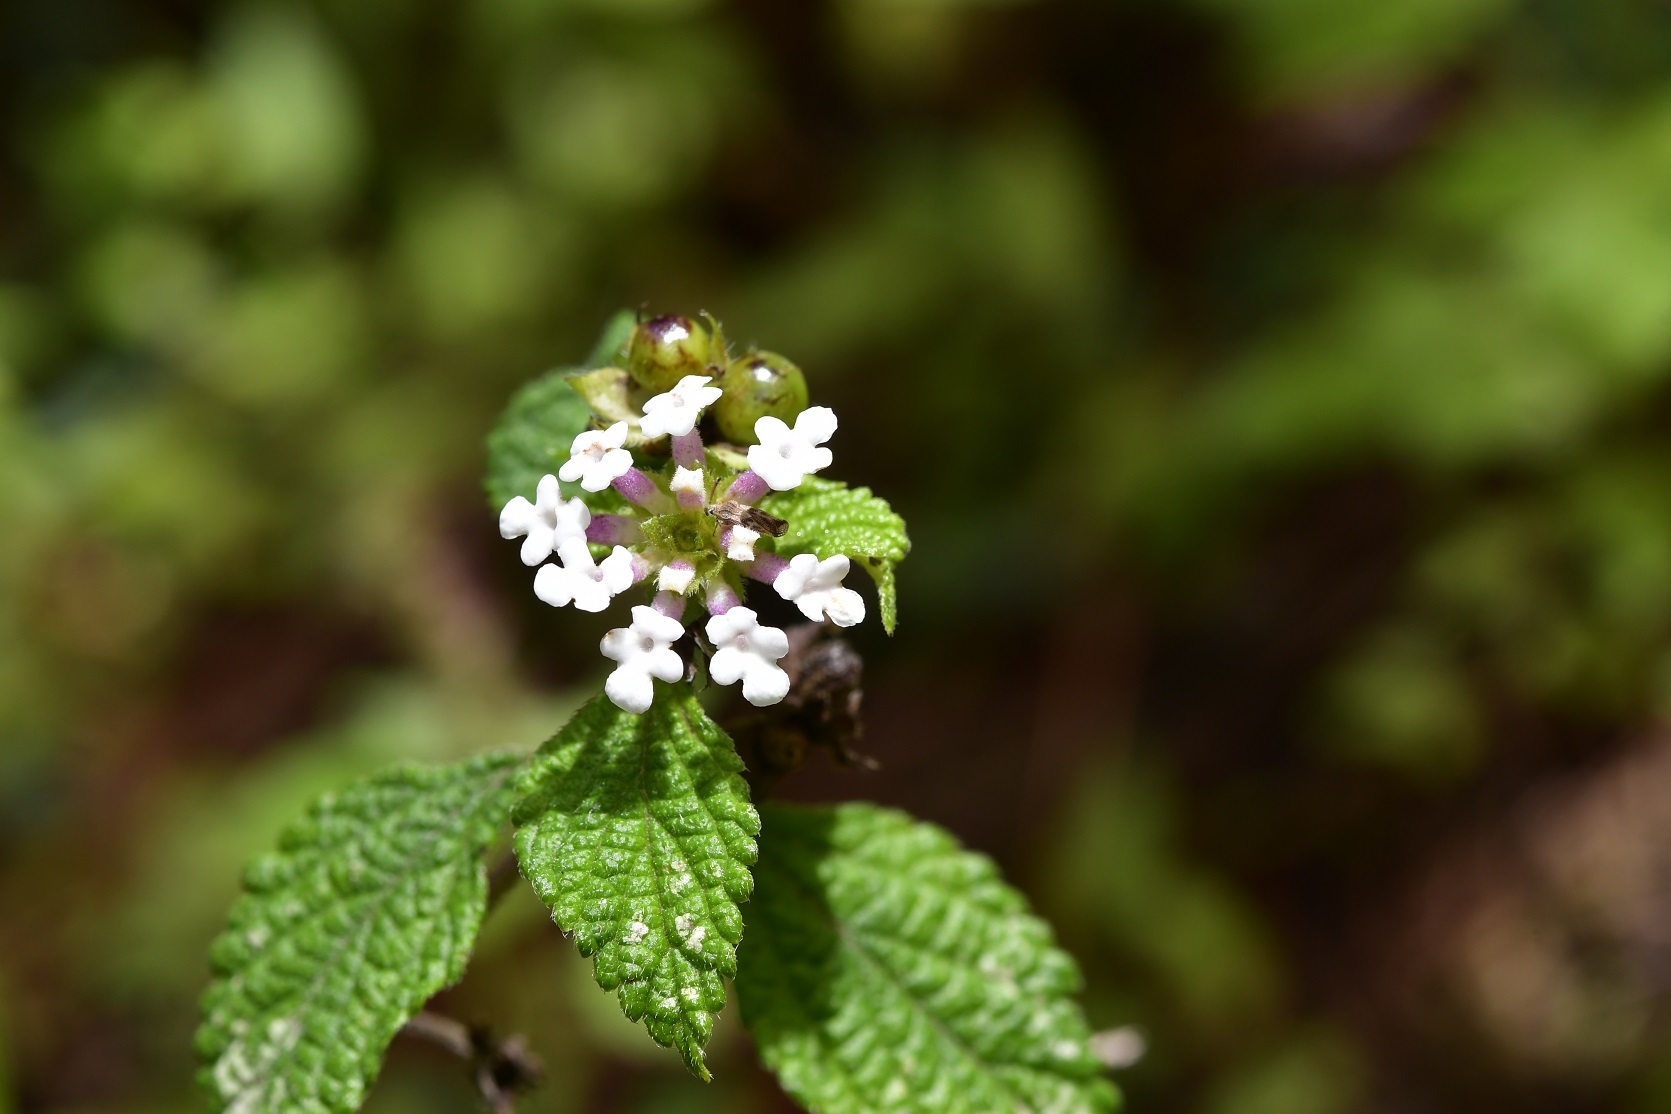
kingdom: Plantae
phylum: Tracheophyta
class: Magnoliopsida
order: Lamiales
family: Verbenaceae
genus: Lantana
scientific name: Lantana hirta
